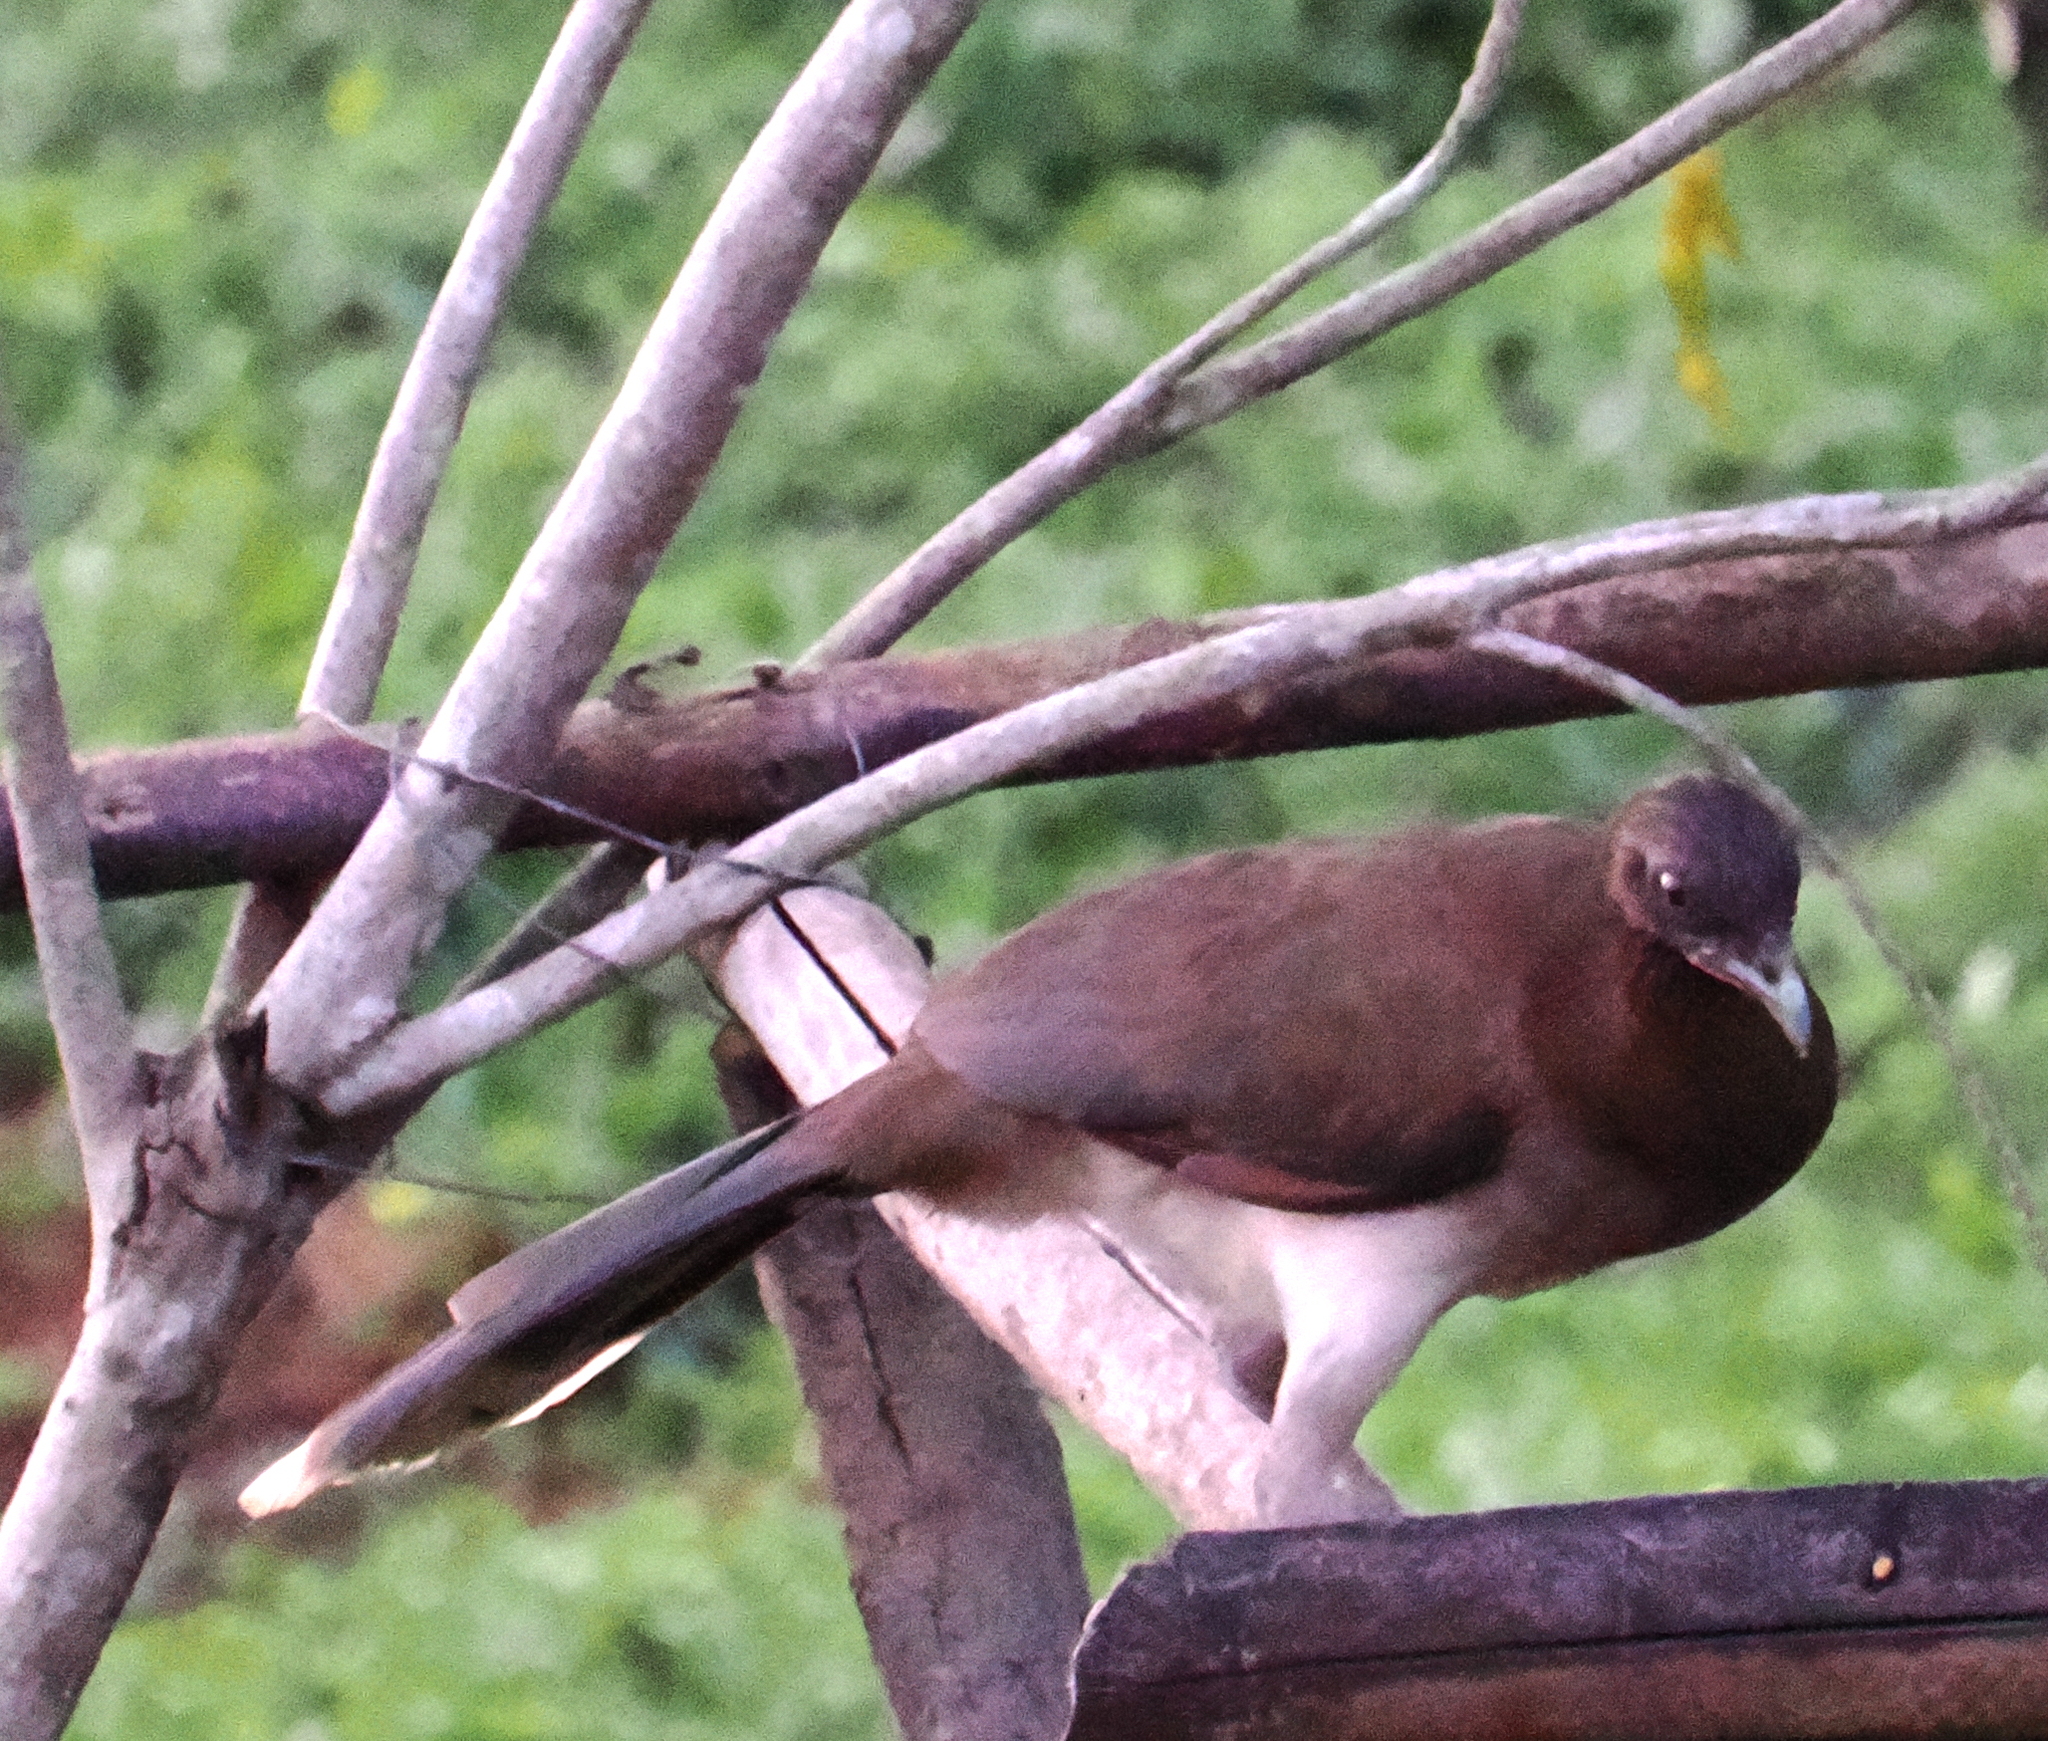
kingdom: Animalia
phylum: Chordata
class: Aves
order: Galliformes
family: Cracidae
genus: Ortalis
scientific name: Ortalis garrula
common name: Chestnut-winged chachalaca
